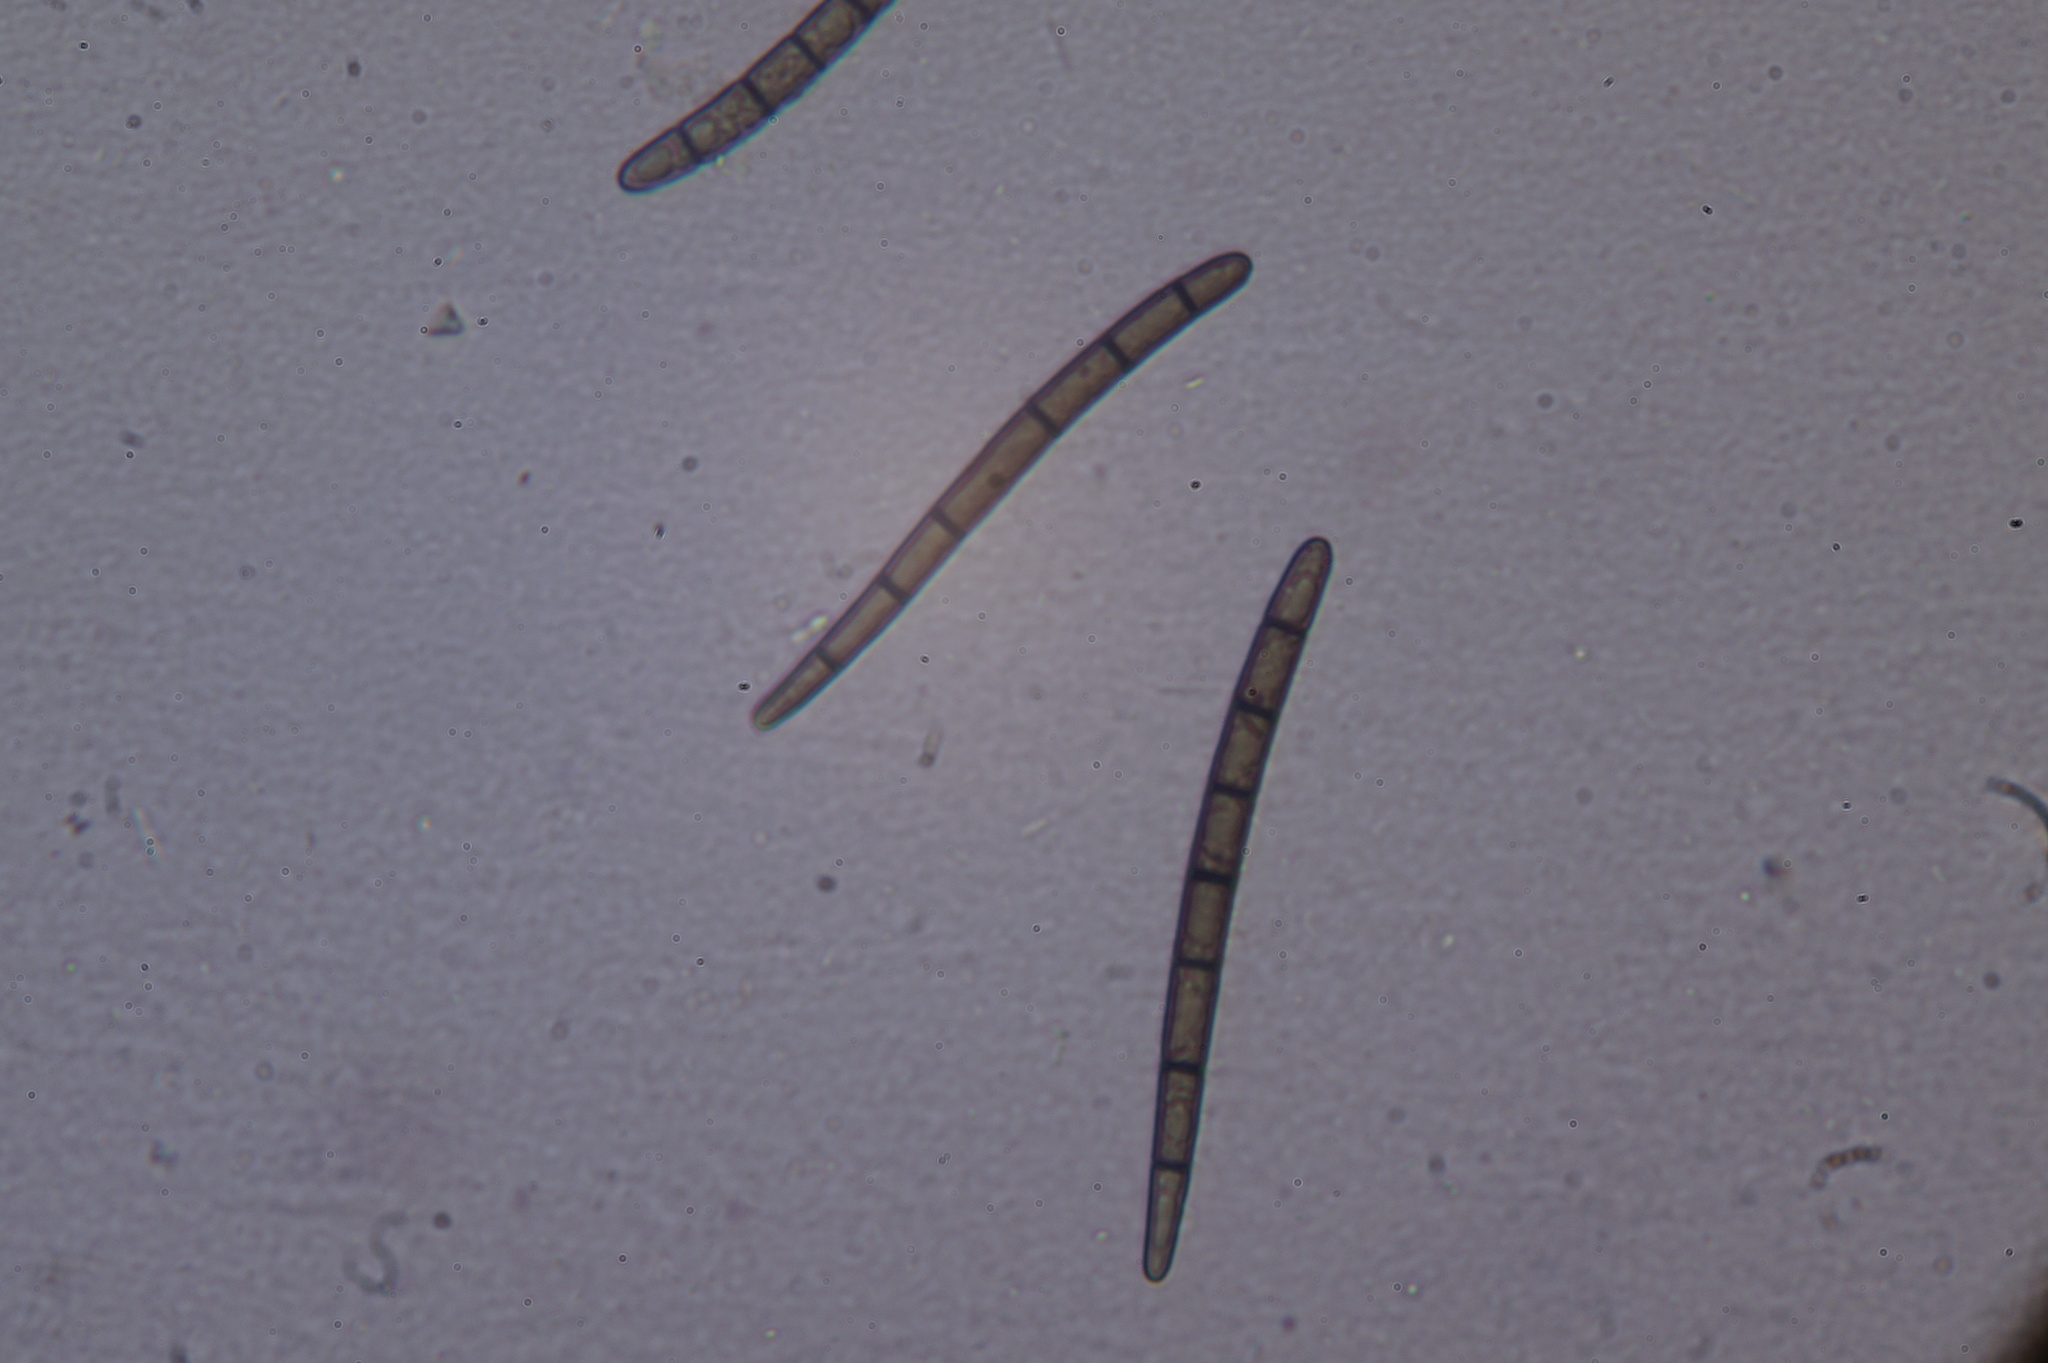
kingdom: Fungi
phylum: Ascomycota
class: Geoglossomycetes
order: Geoglossales
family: Geoglossaceae
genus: Geoglossum
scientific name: Geoglossum umbratile
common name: Plain earthtongue
